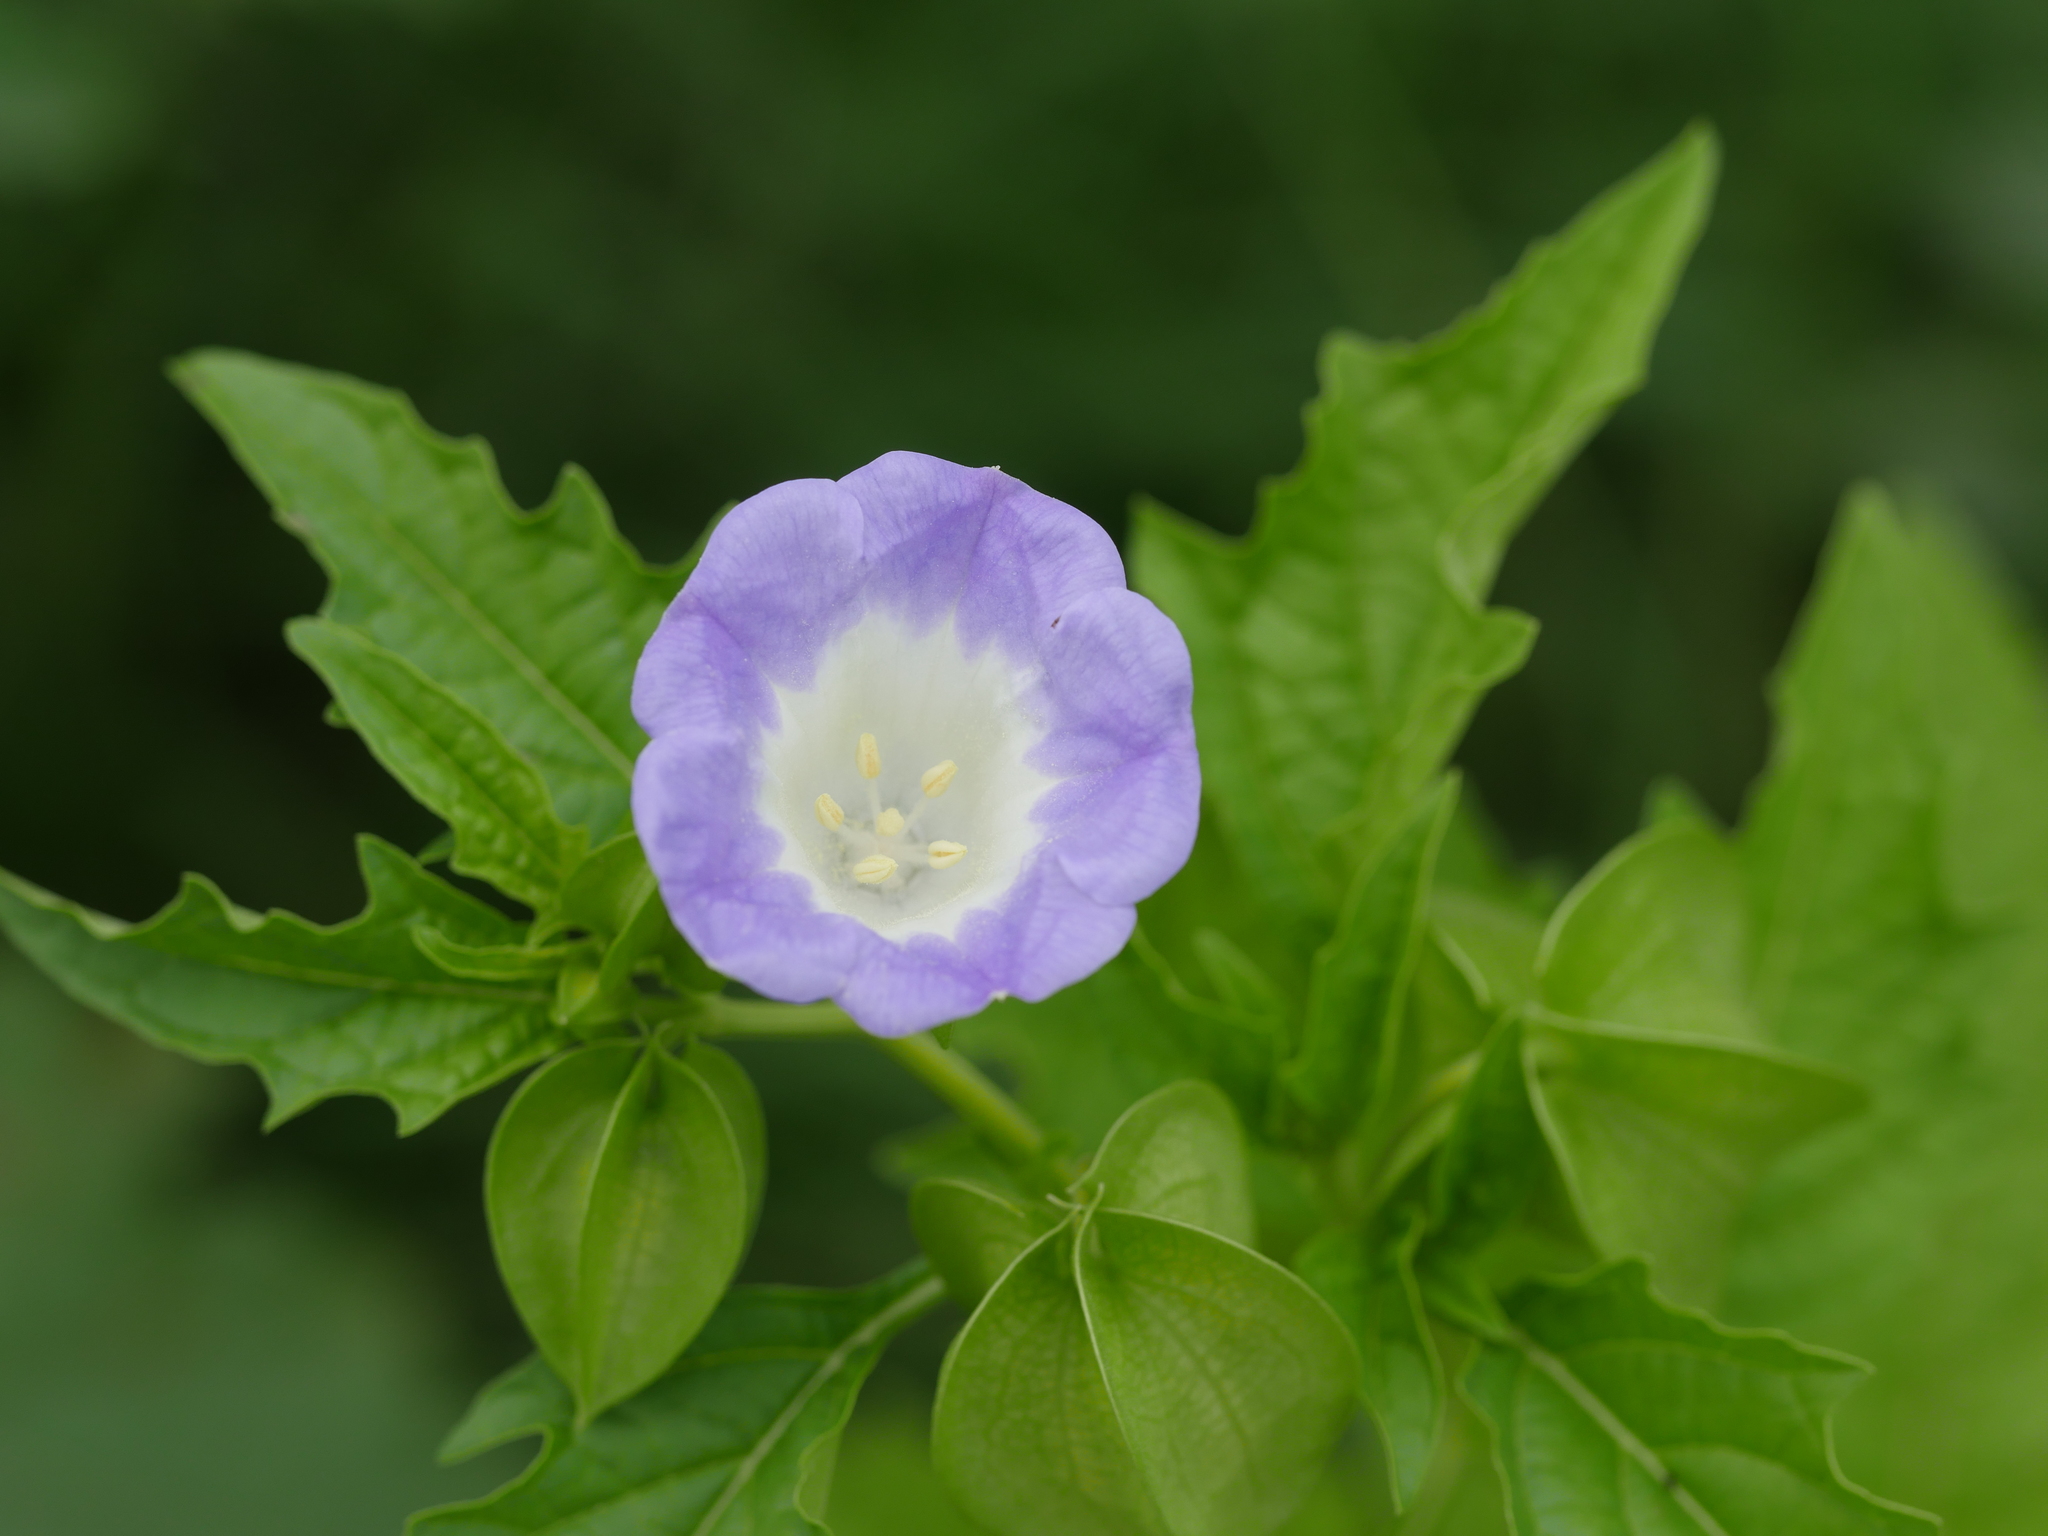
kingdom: Plantae
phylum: Tracheophyta
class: Magnoliopsida
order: Solanales
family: Solanaceae
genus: Nicandra
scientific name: Nicandra physalodes
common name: Apple-of-peru
